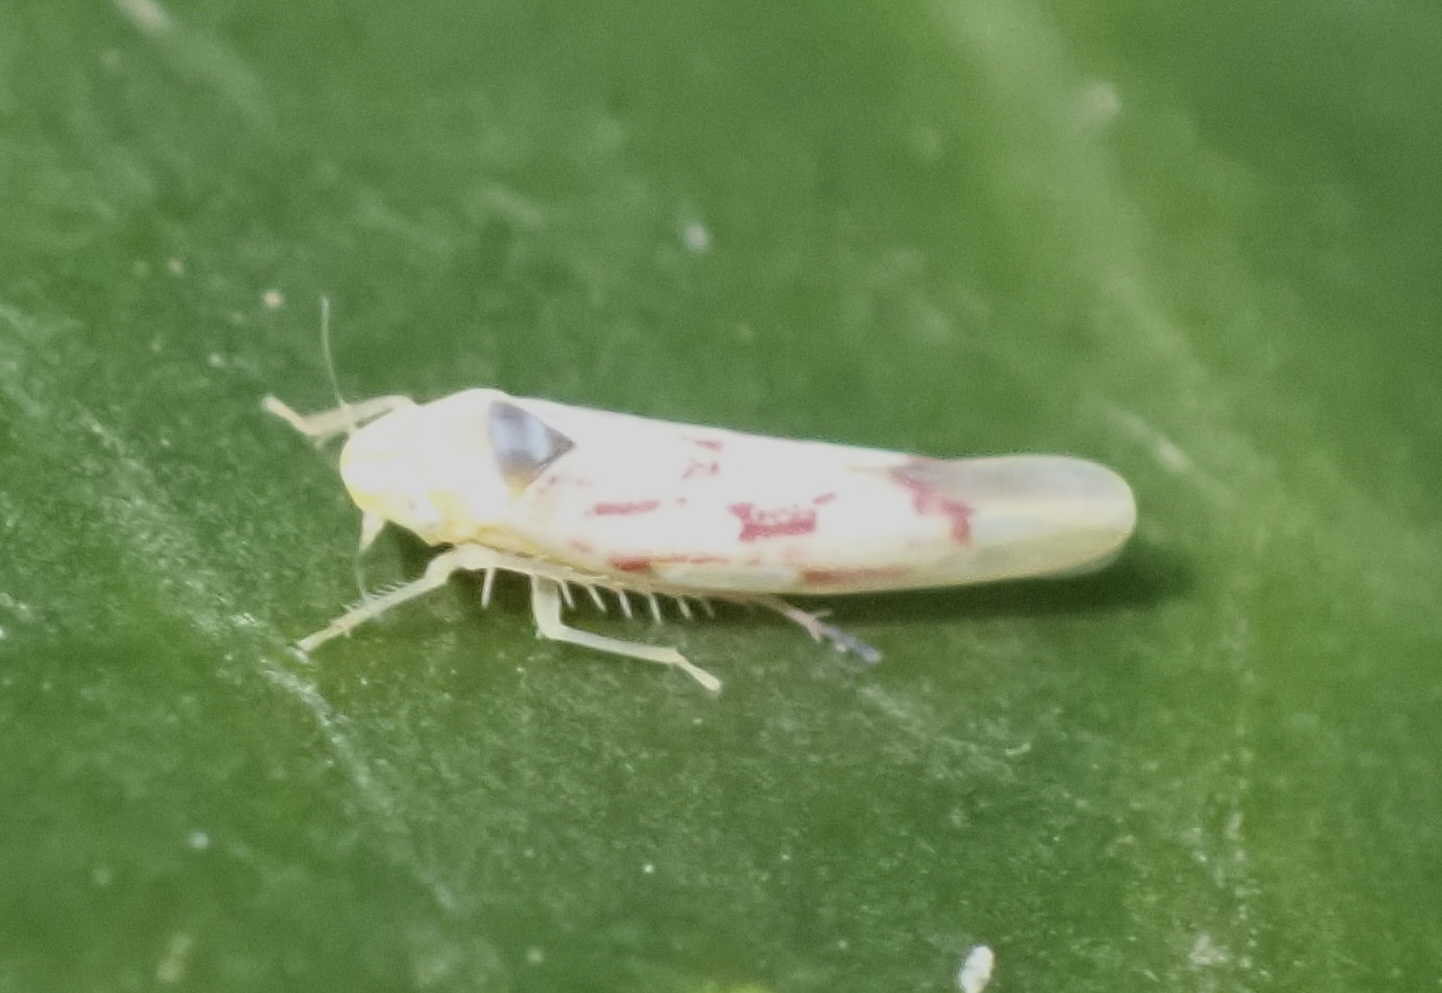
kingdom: Animalia
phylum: Arthropoda
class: Insecta
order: Hemiptera
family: Cicadellidae
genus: Zygina
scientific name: Zygina flammigera
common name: Leafhopper
